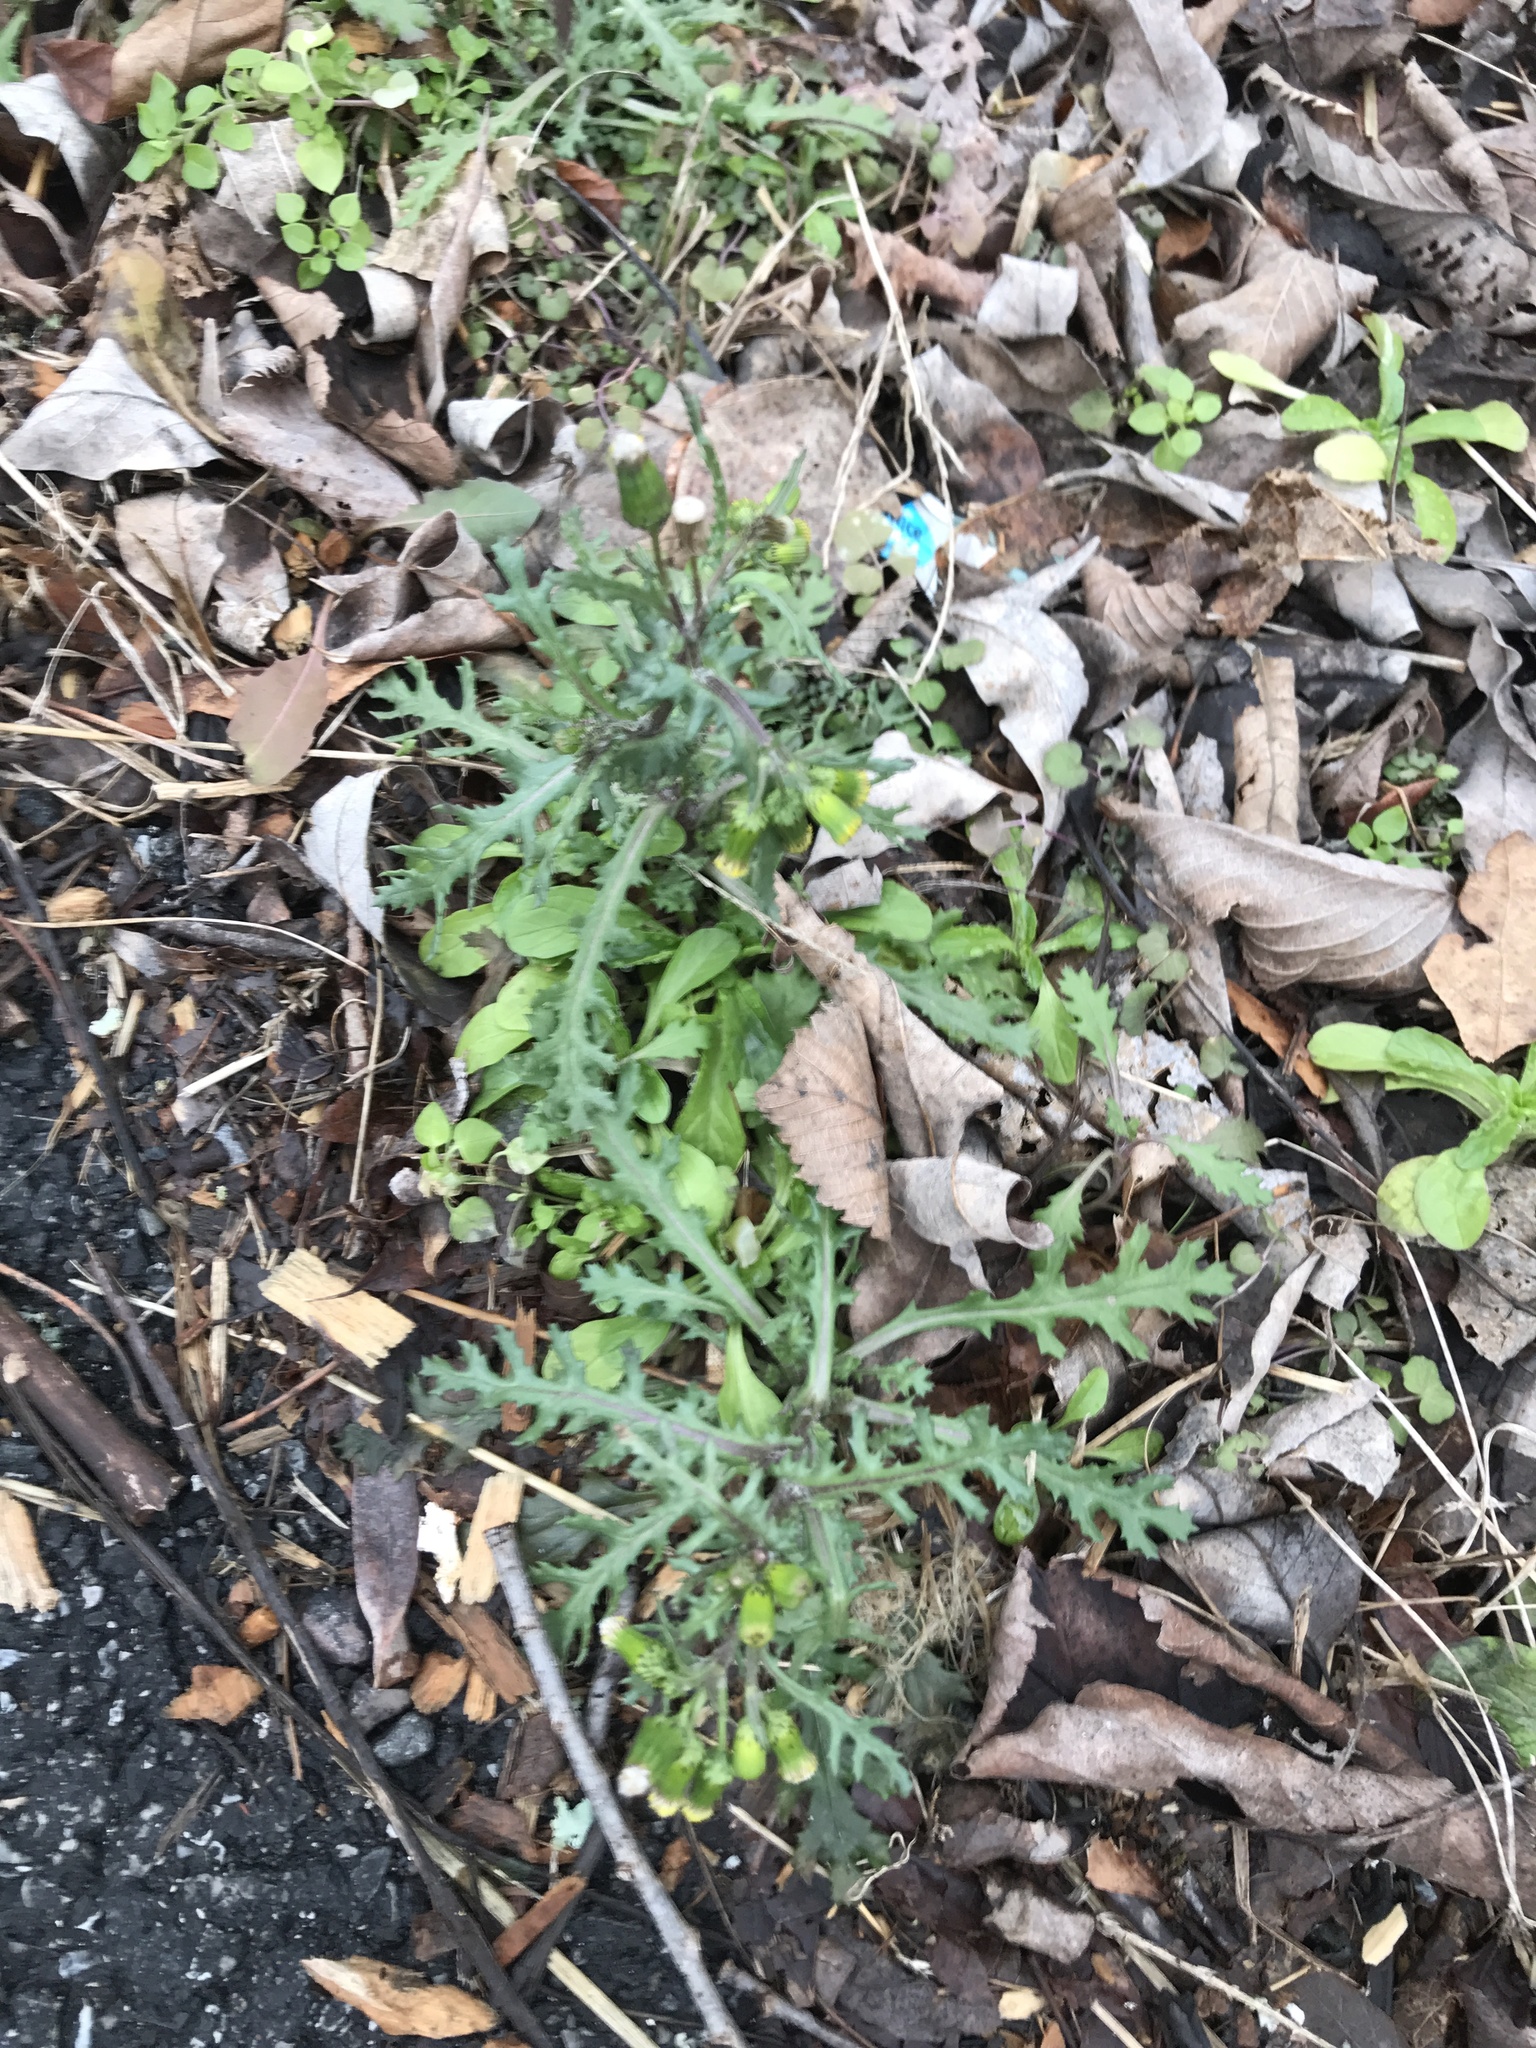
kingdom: Plantae
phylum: Tracheophyta
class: Magnoliopsida
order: Asterales
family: Asteraceae
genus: Senecio
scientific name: Senecio vulgaris
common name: Old-man-in-the-spring
